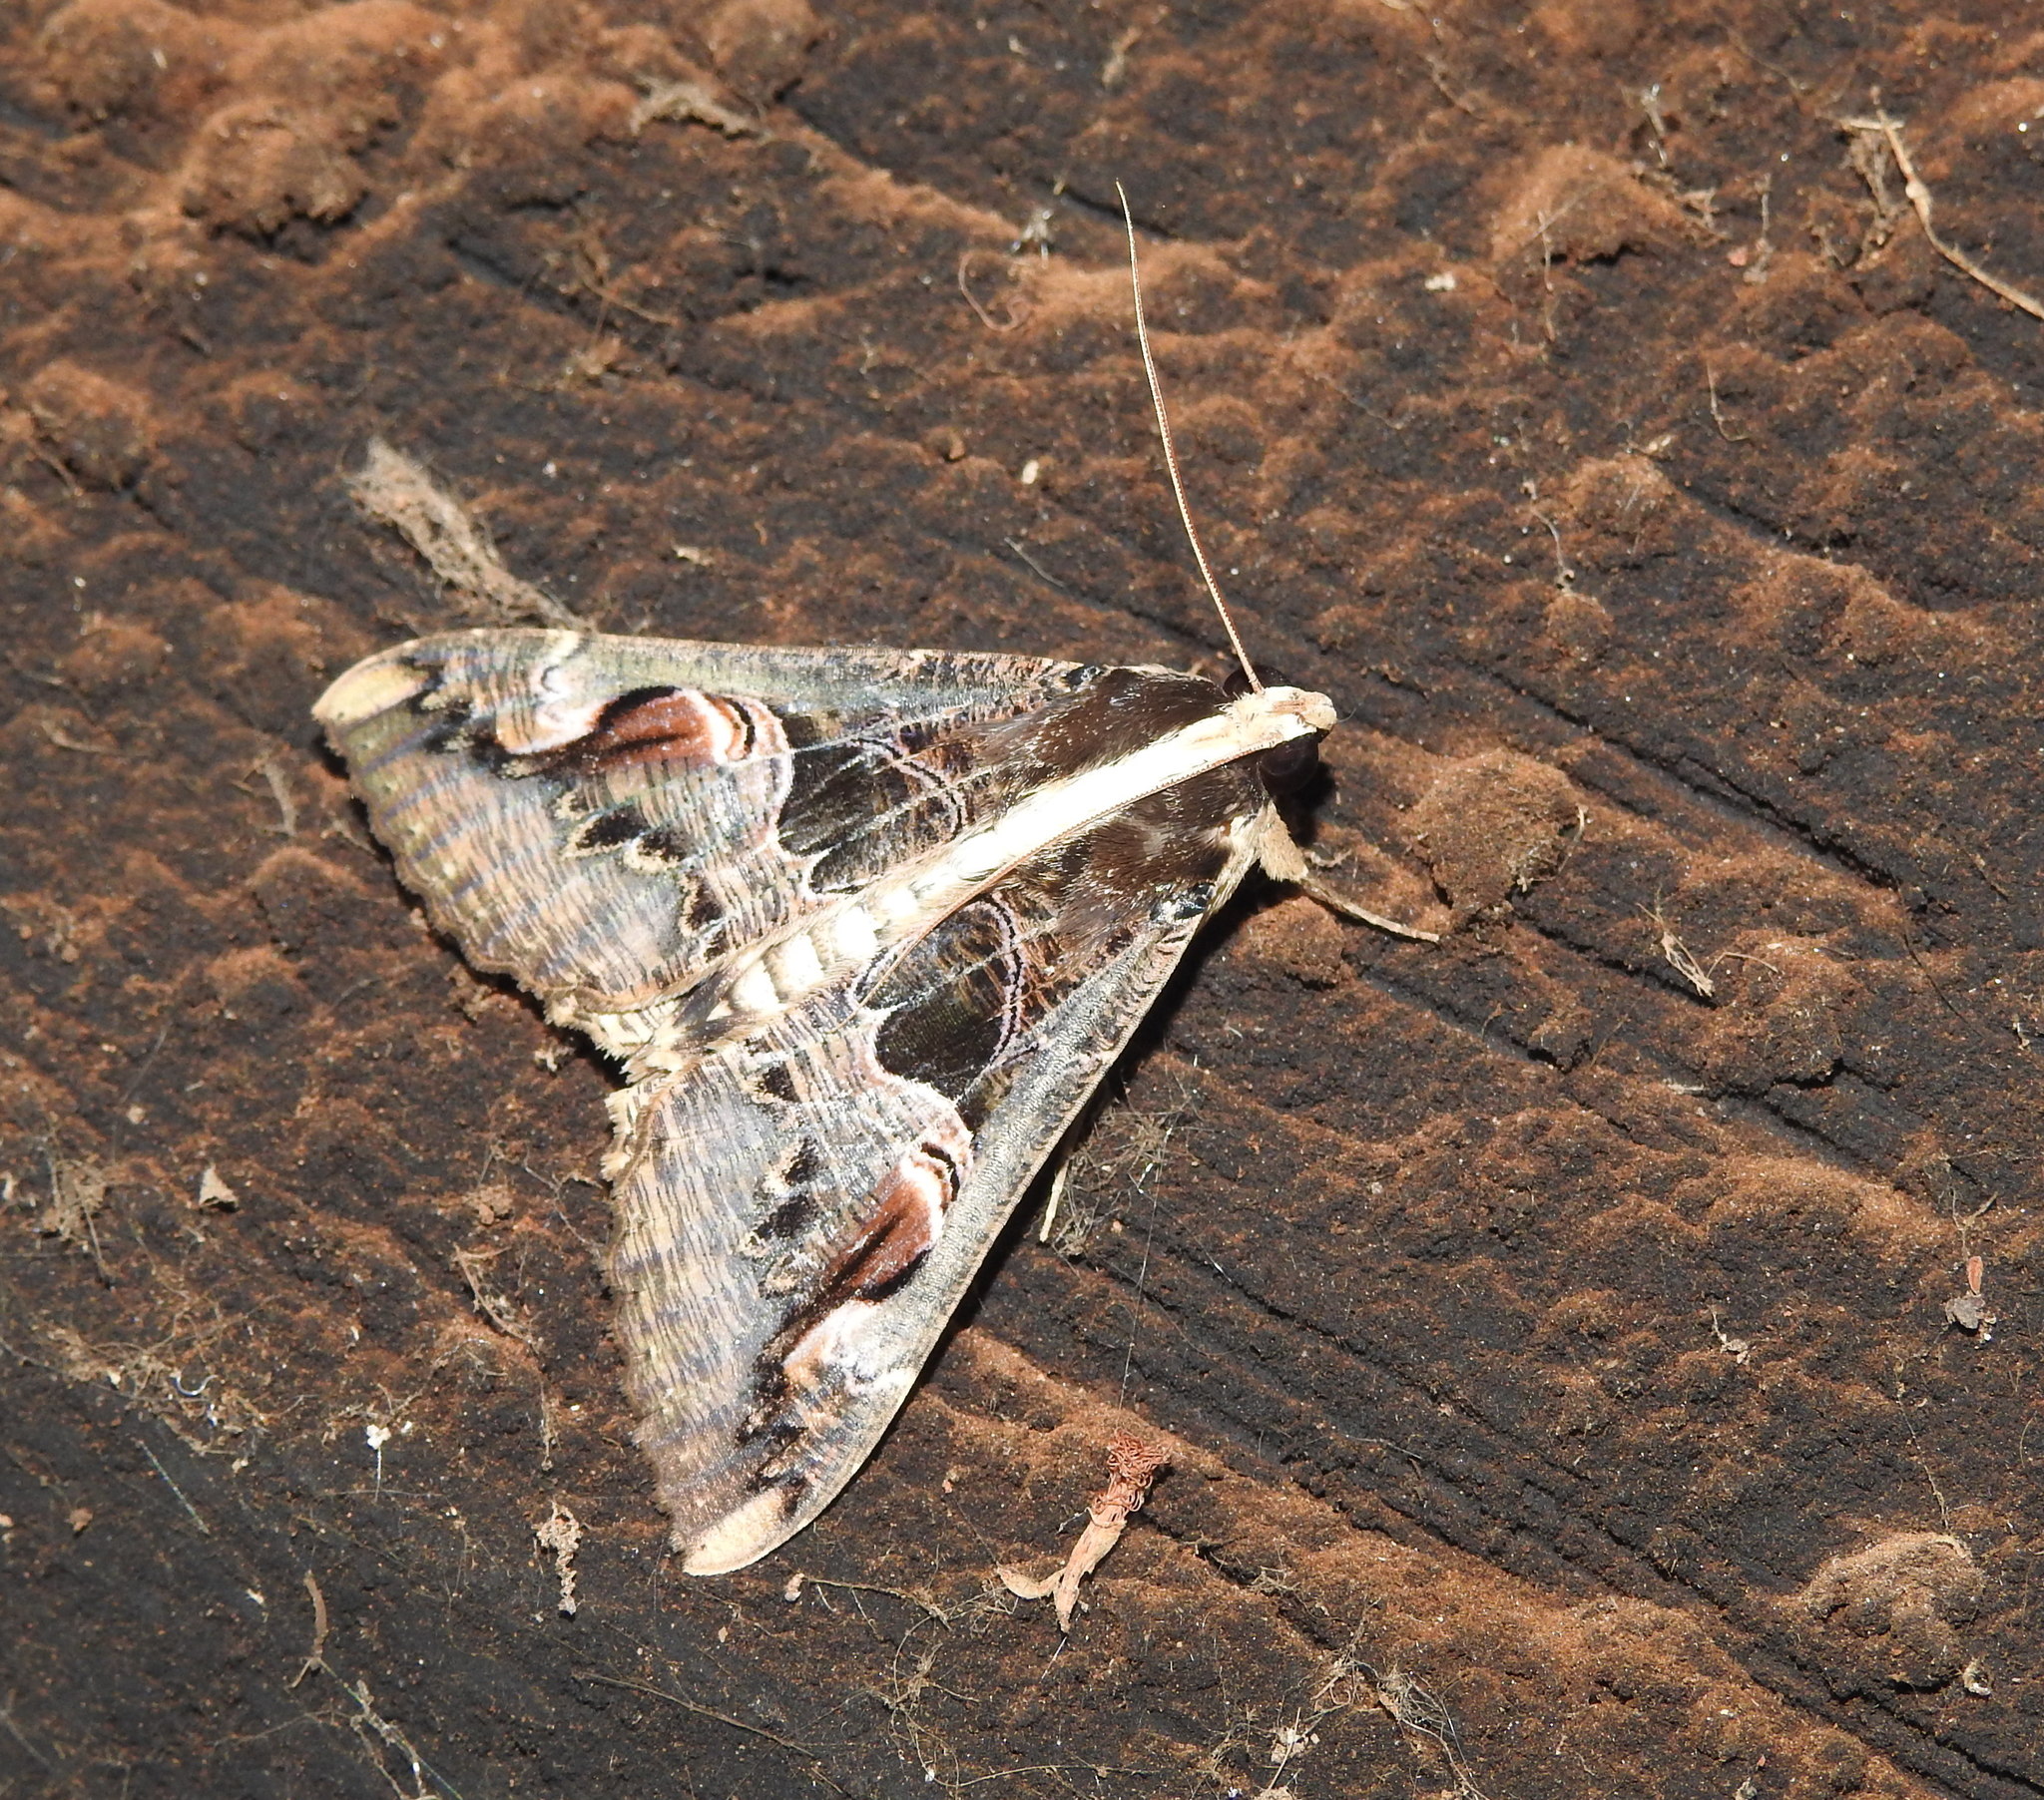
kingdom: Animalia
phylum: Arthropoda
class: Insecta
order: Lepidoptera
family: Erebidae
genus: Sphingomorpha
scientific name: Sphingomorpha chlorea
